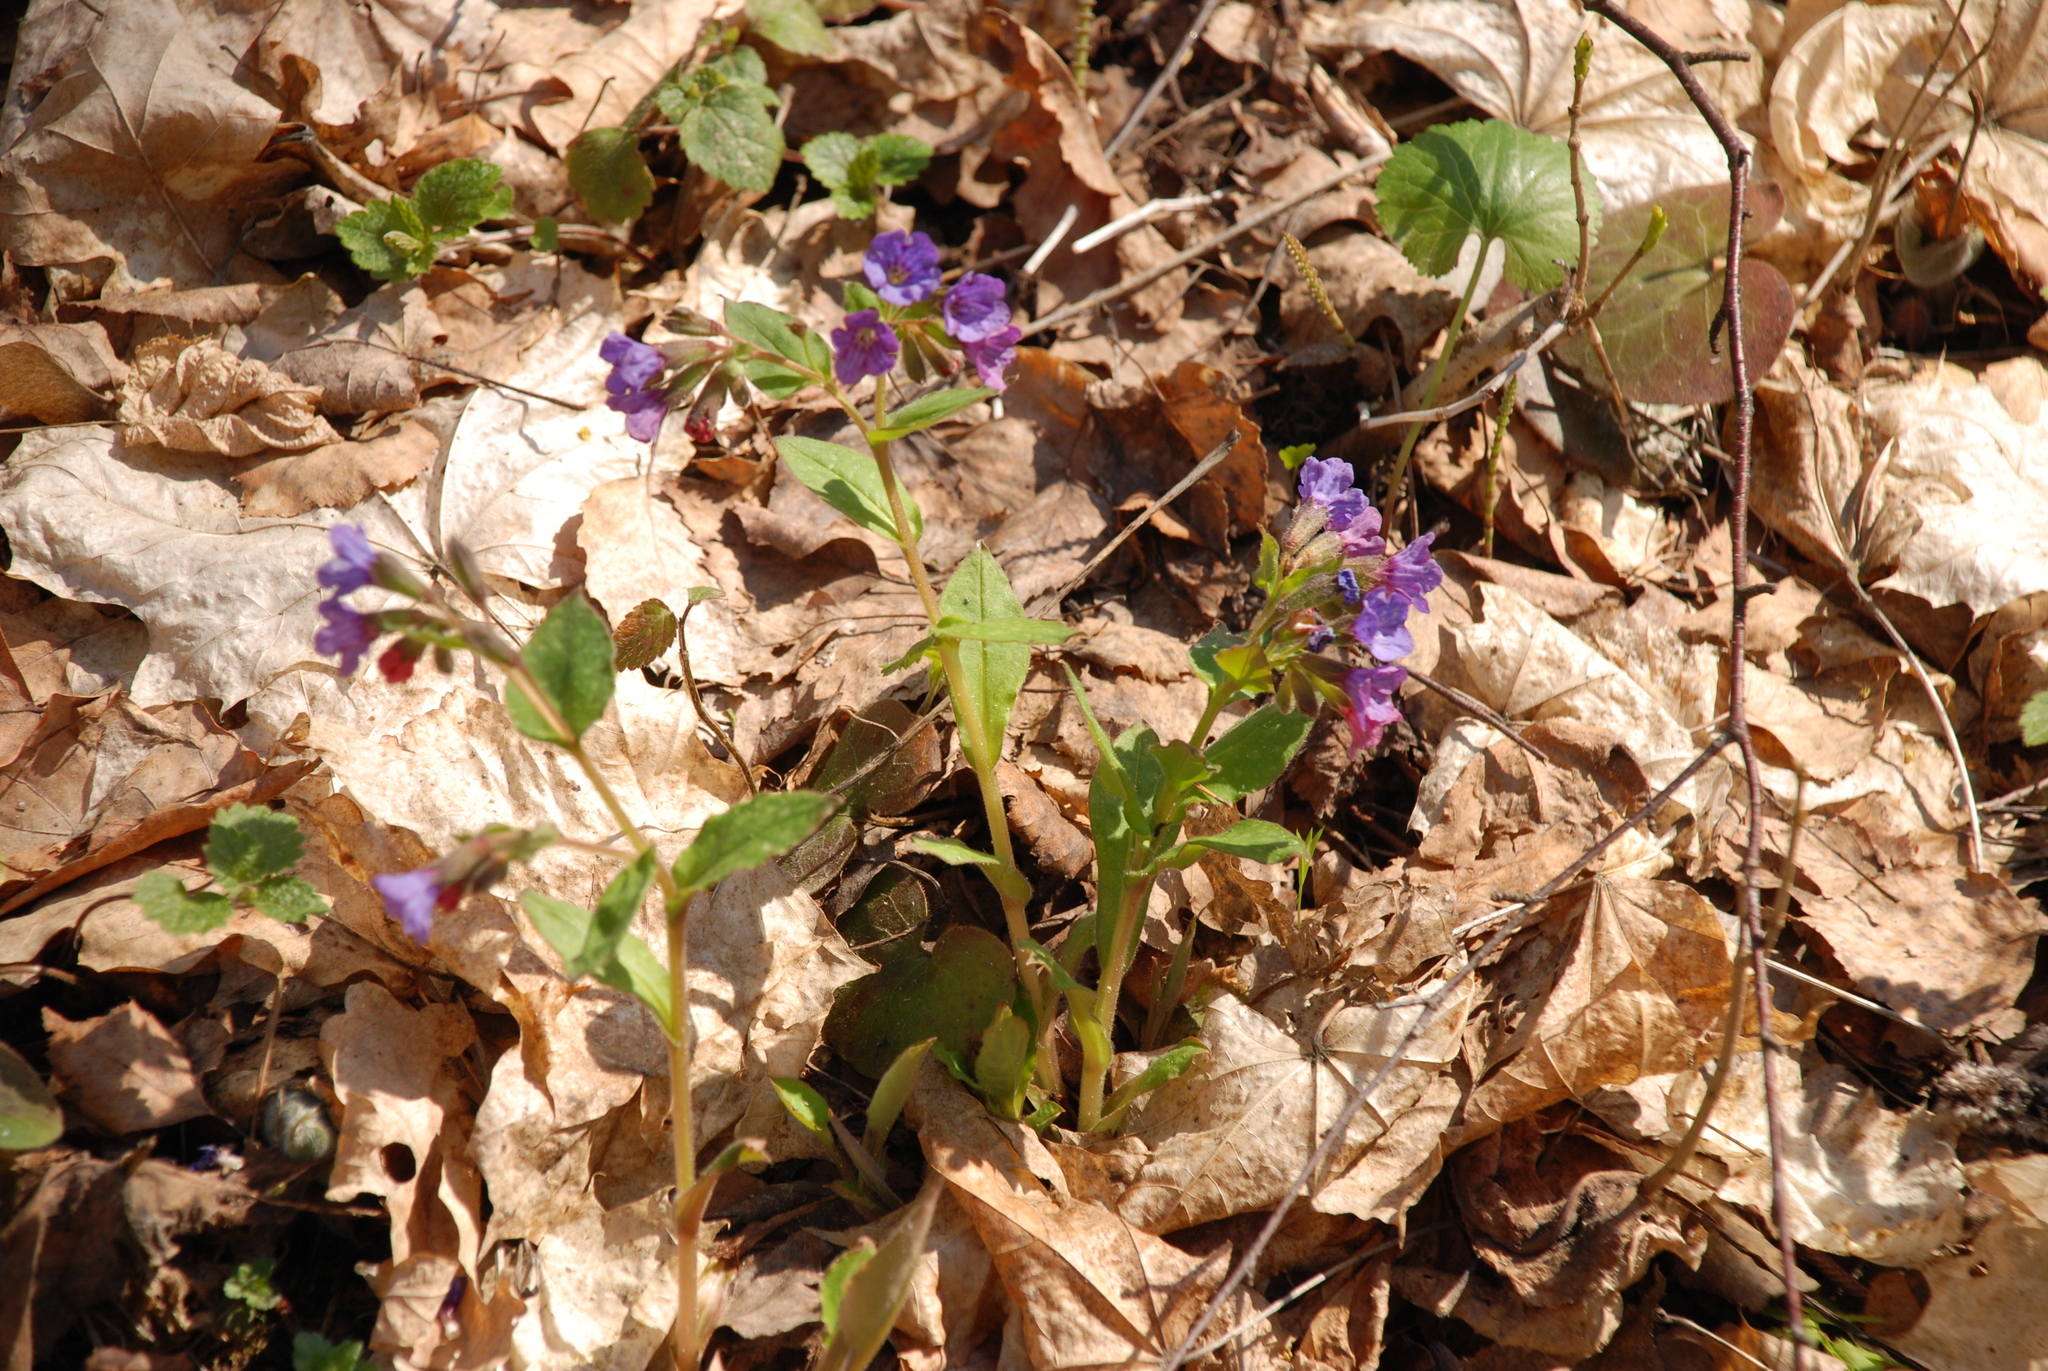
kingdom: Plantae
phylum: Tracheophyta
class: Magnoliopsida
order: Boraginales
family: Boraginaceae
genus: Pulmonaria
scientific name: Pulmonaria obscura
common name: Suffolk lungwort
